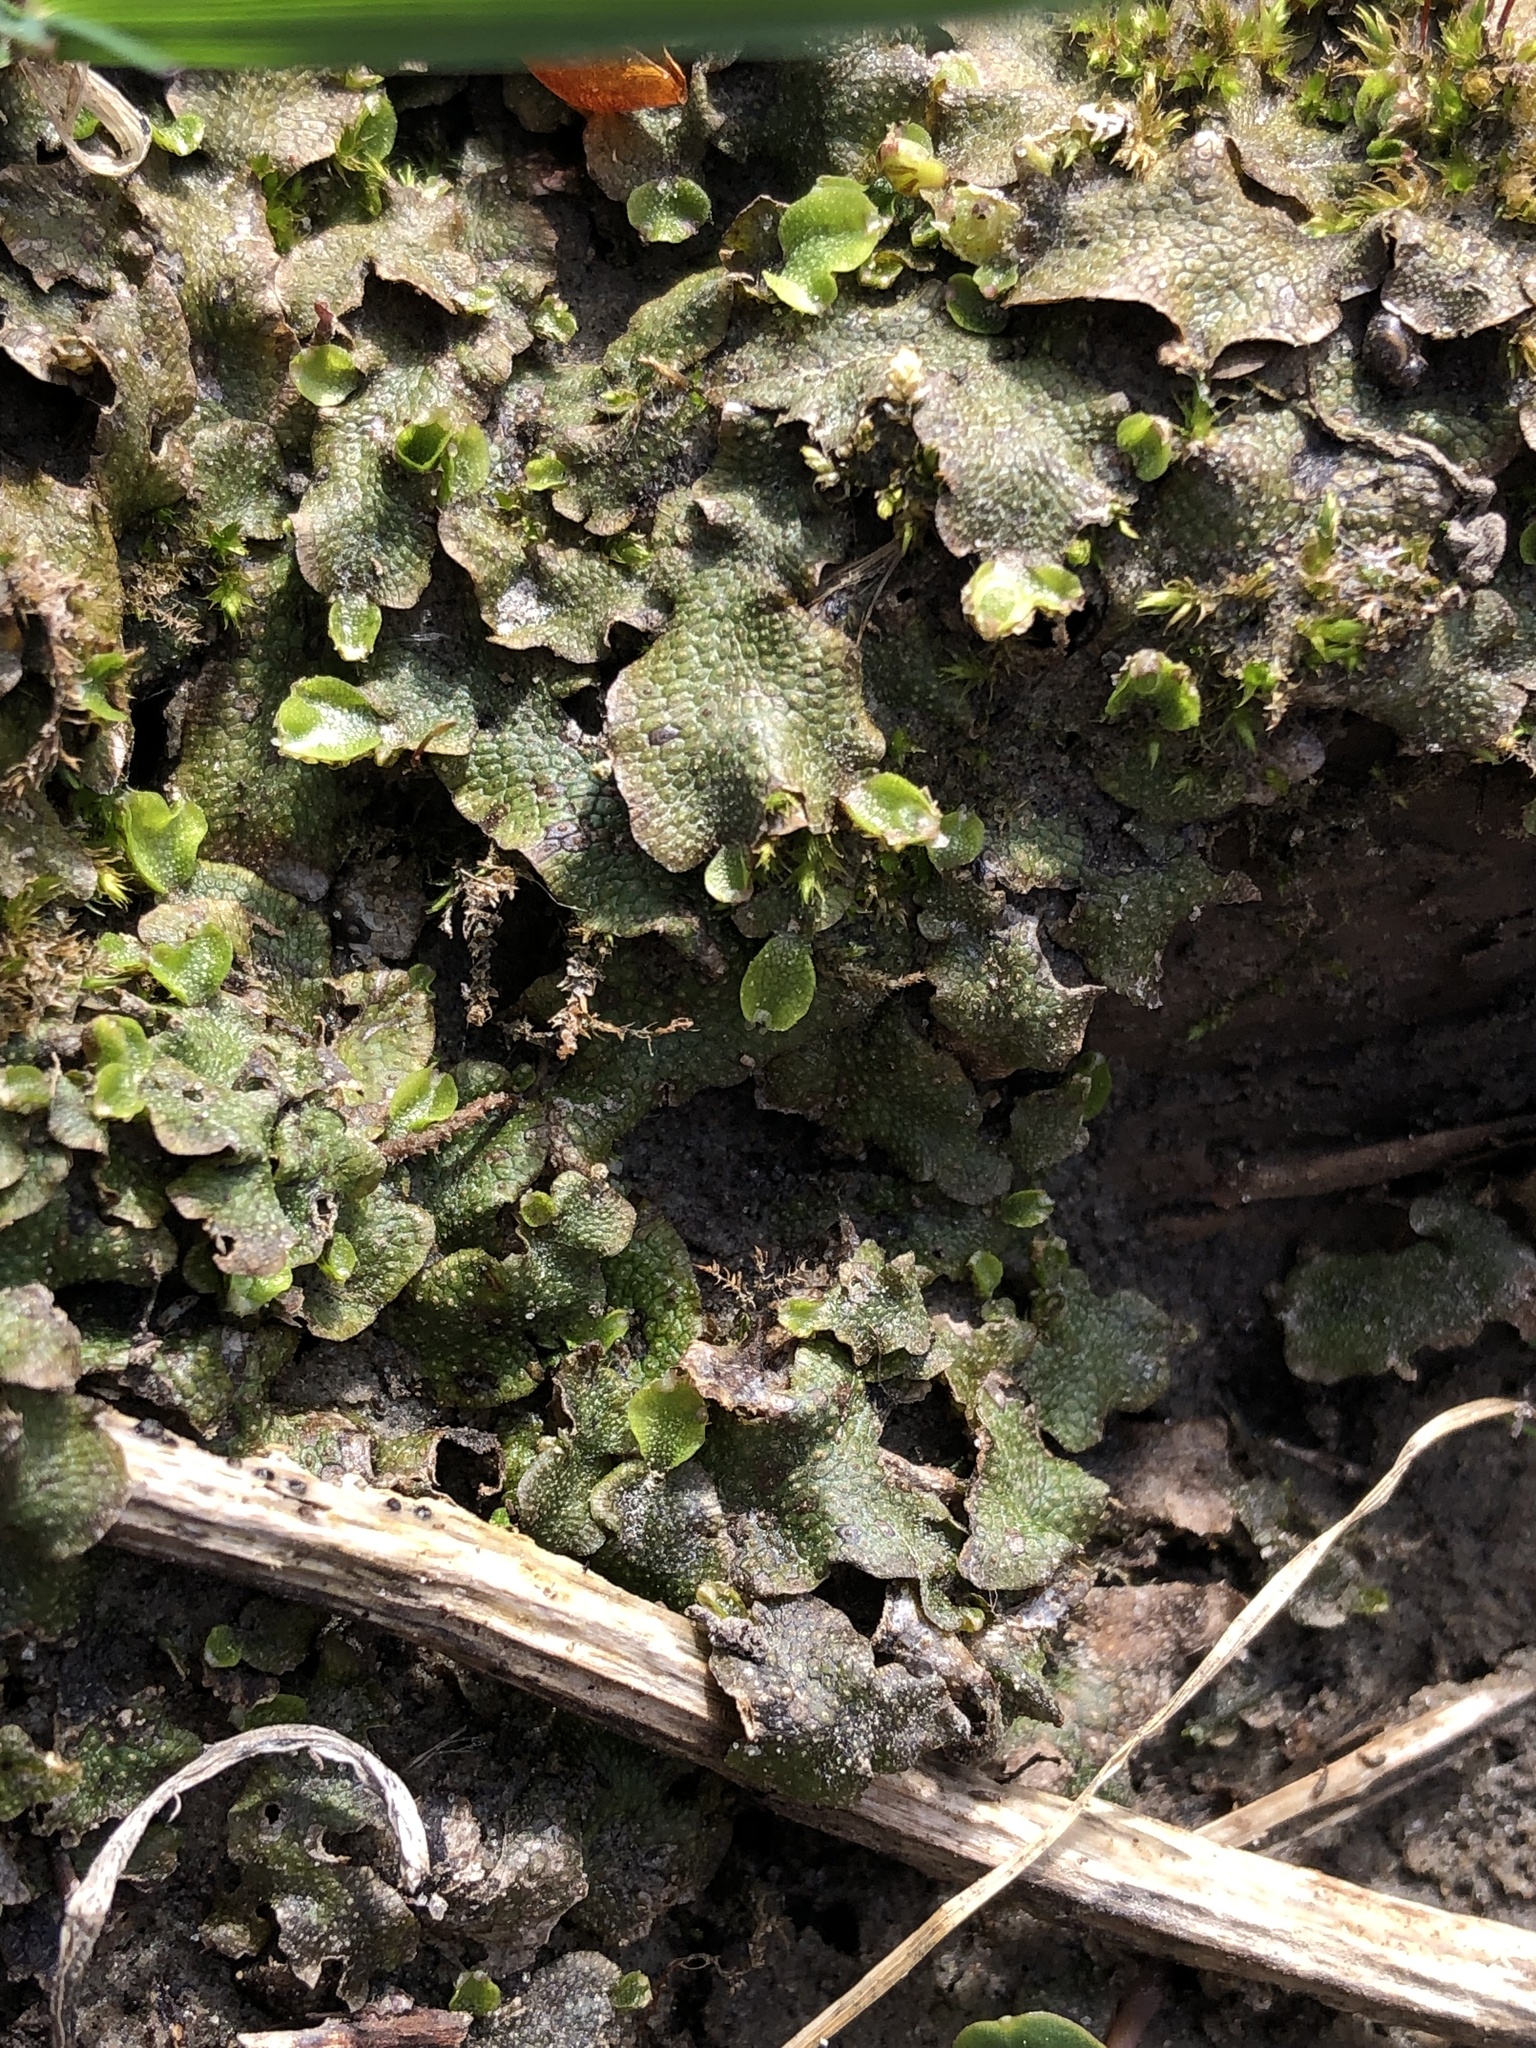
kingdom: Plantae
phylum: Marchantiophyta
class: Marchantiopsida
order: Marchantiales
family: Conocephalaceae
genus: Conocephalum
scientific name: Conocephalum salebrosum
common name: Cat-tongue liverwort
